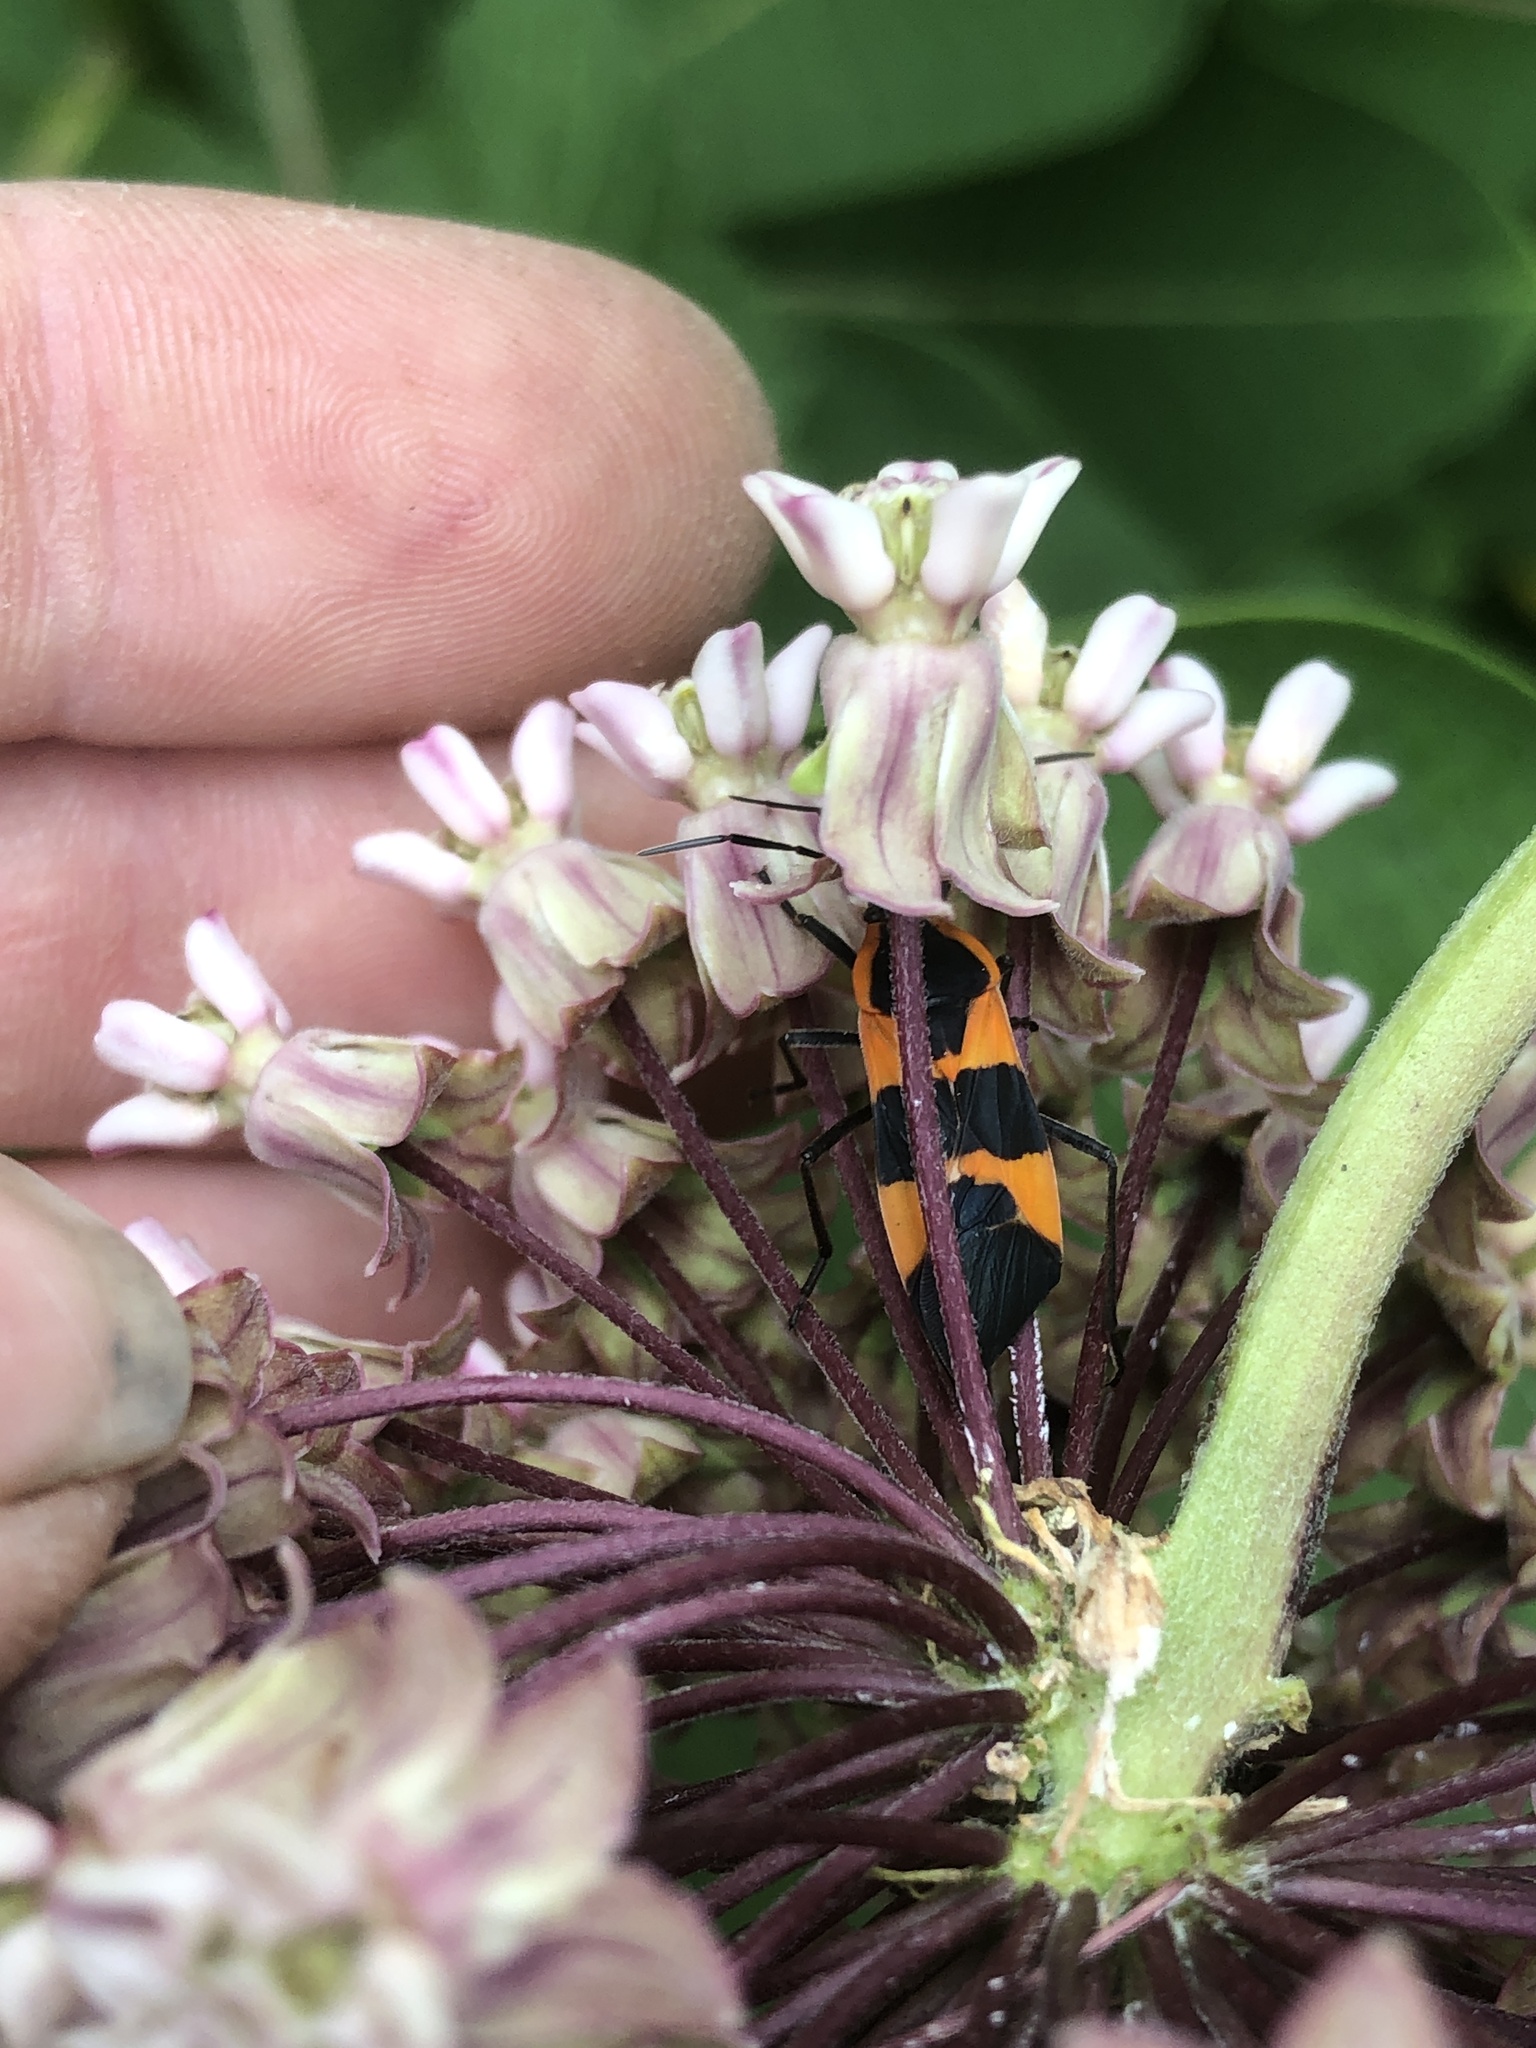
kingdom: Animalia
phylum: Arthropoda
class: Insecta
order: Hemiptera
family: Lygaeidae
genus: Oncopeltus
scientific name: Oncopeltus fasciatus
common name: Large milkweed bug
